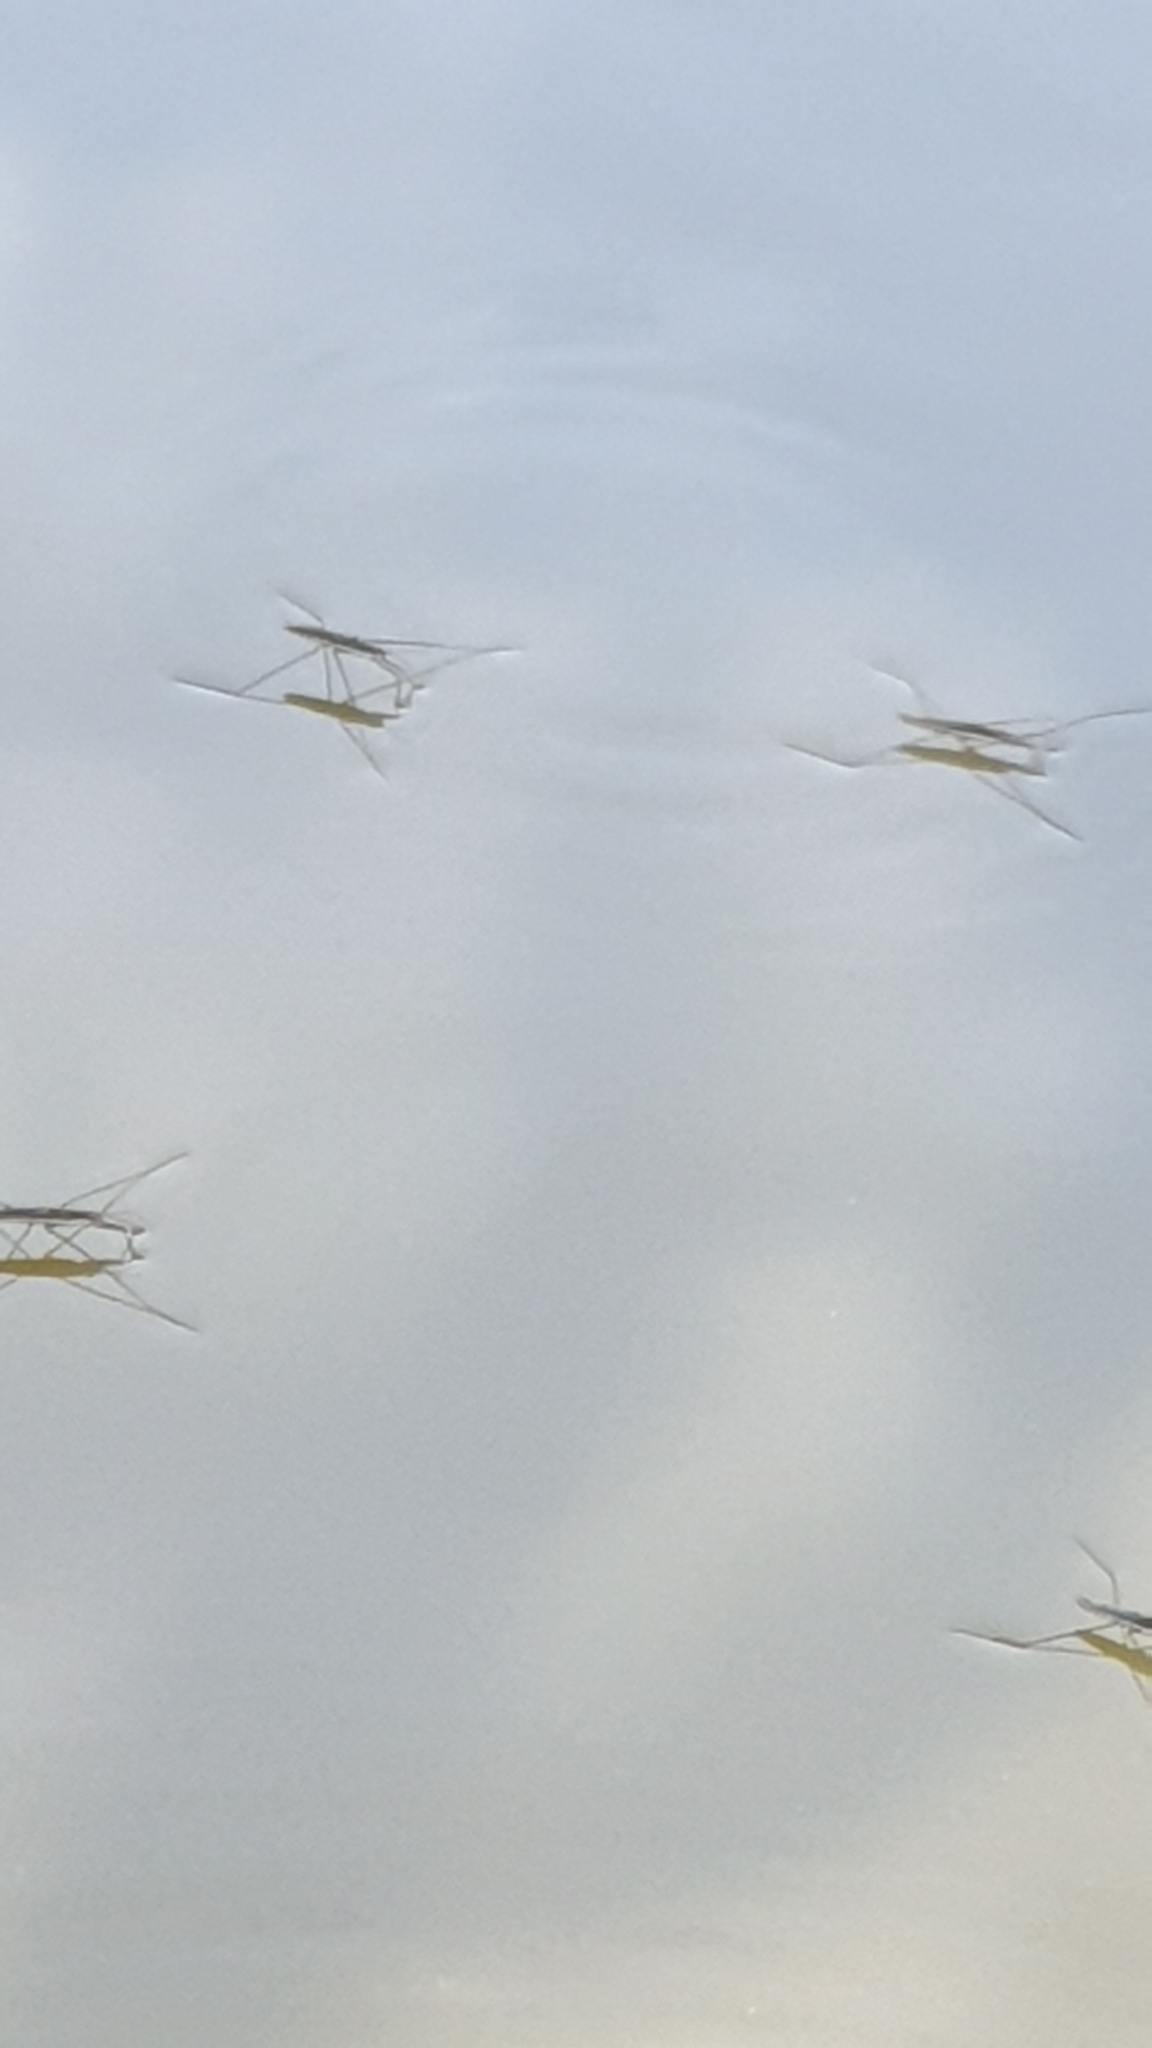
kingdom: Animalia
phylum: Arthropoda
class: Insecta
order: Hemiptera
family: Gerridae
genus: Aquarius
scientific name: Aquarius paludum
